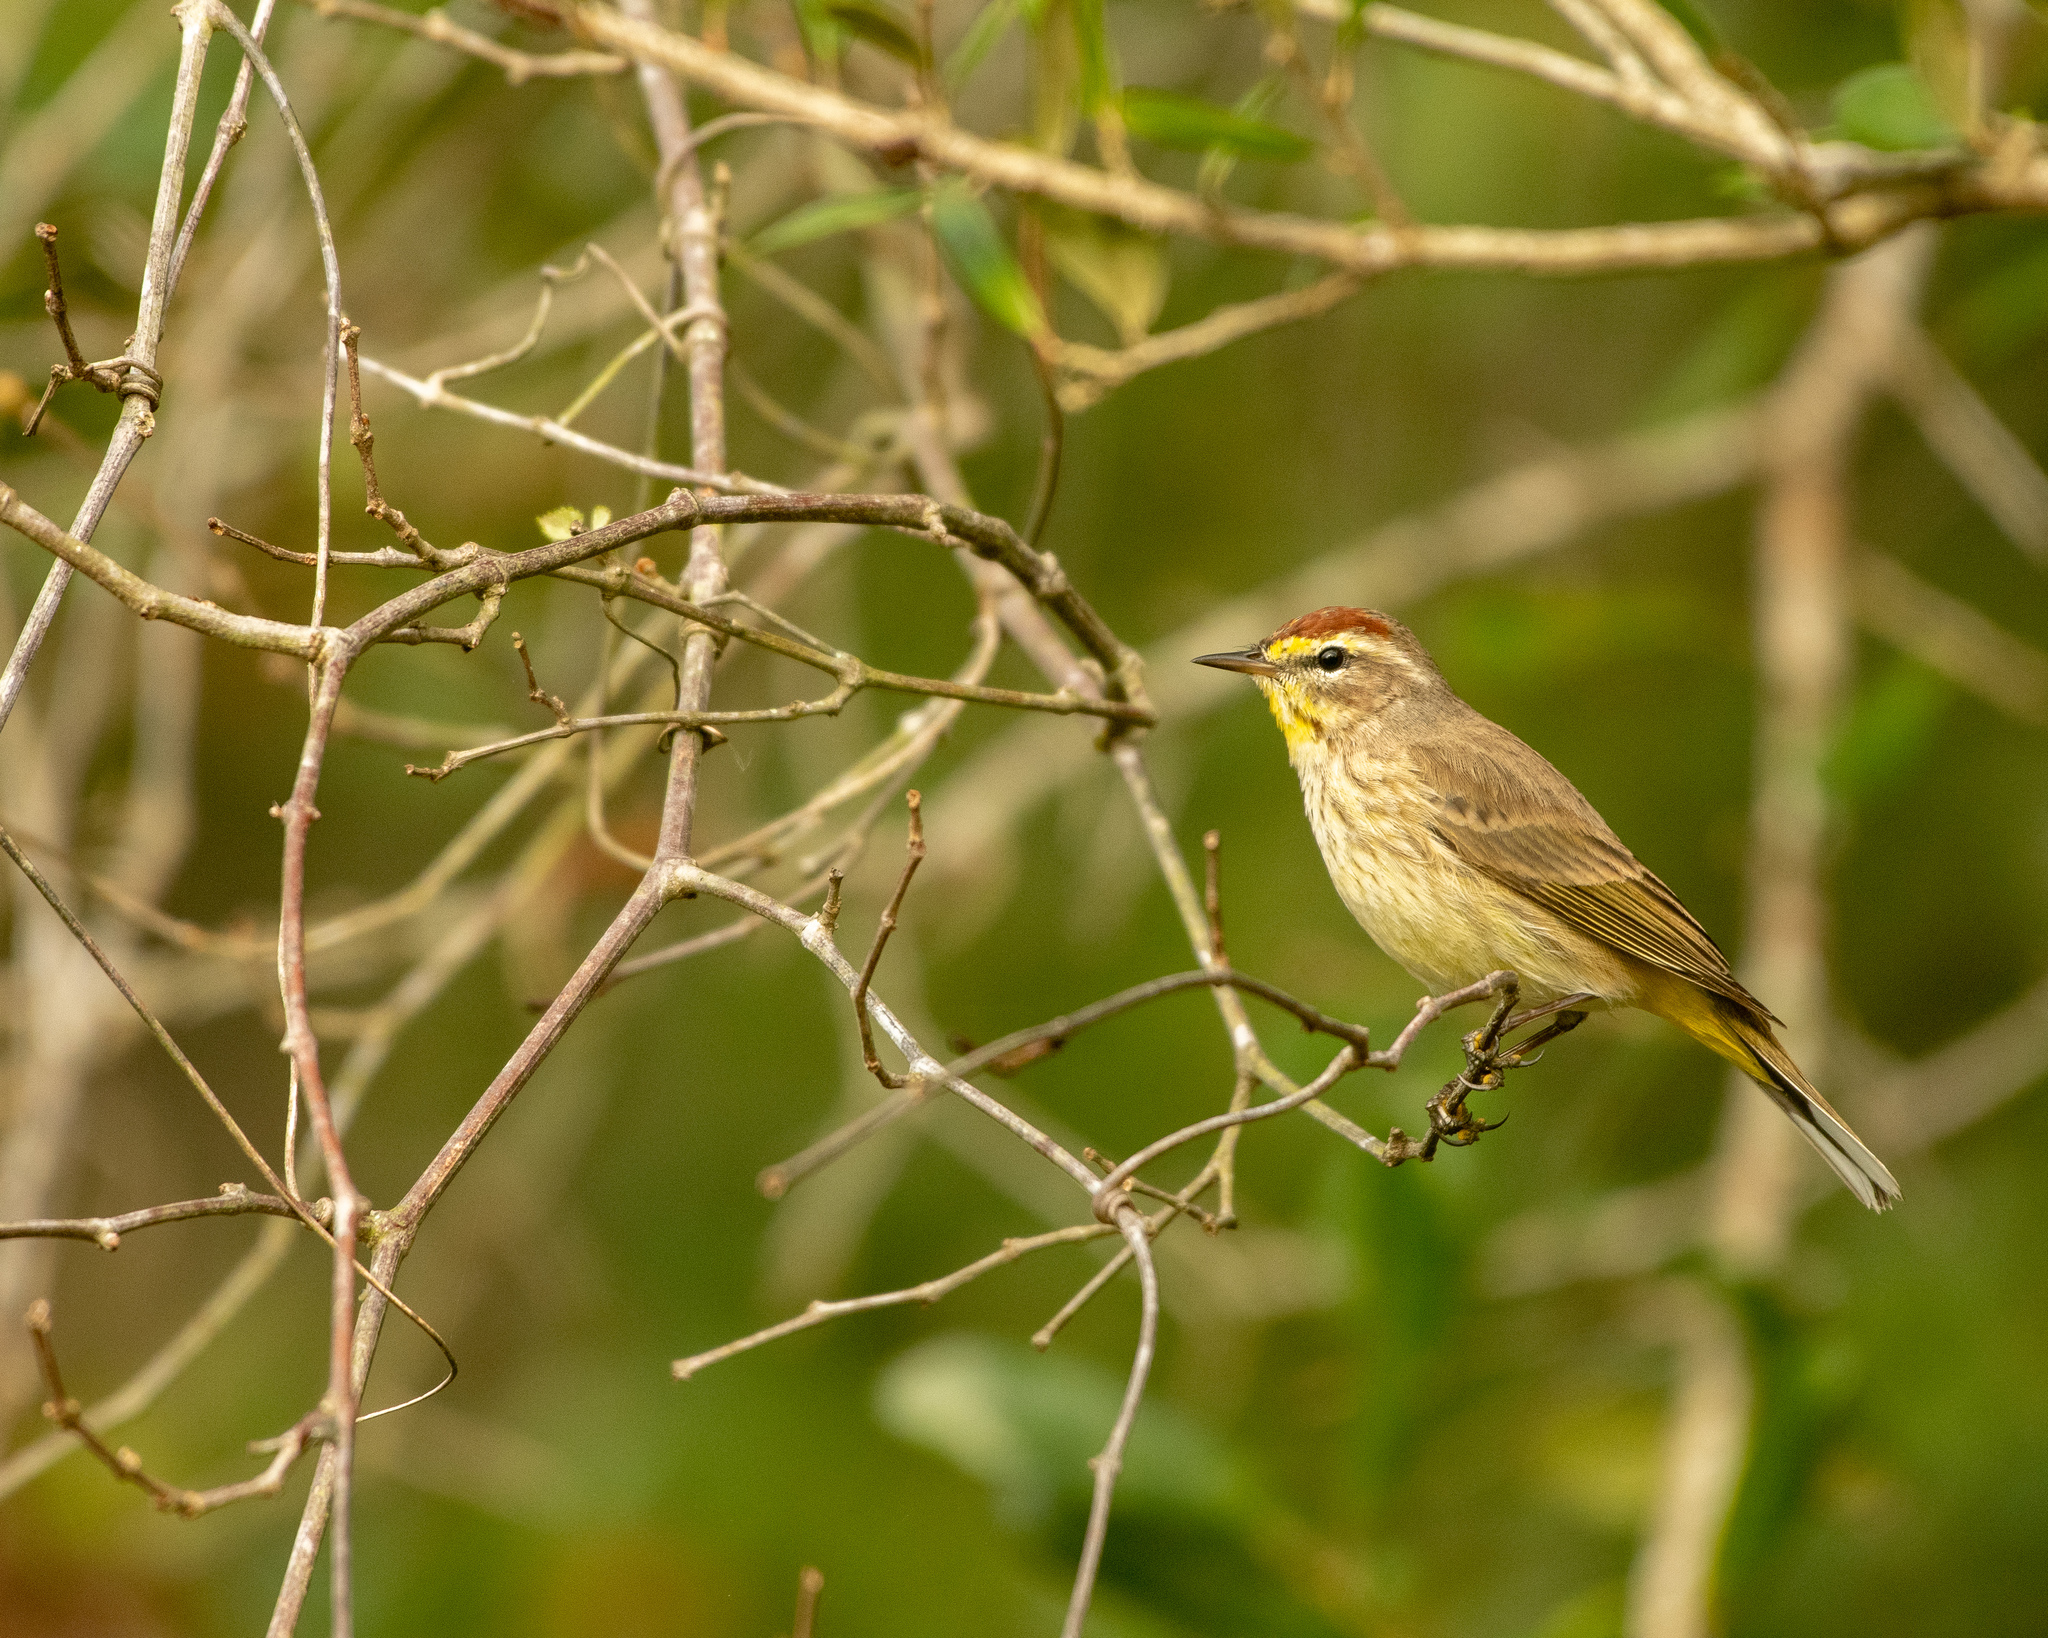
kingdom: Animalia
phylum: Chordata
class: Aves
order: Passeriformes
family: Parulidae
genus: Setophaga
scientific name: Setophaga palmarum
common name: Palm warbler
